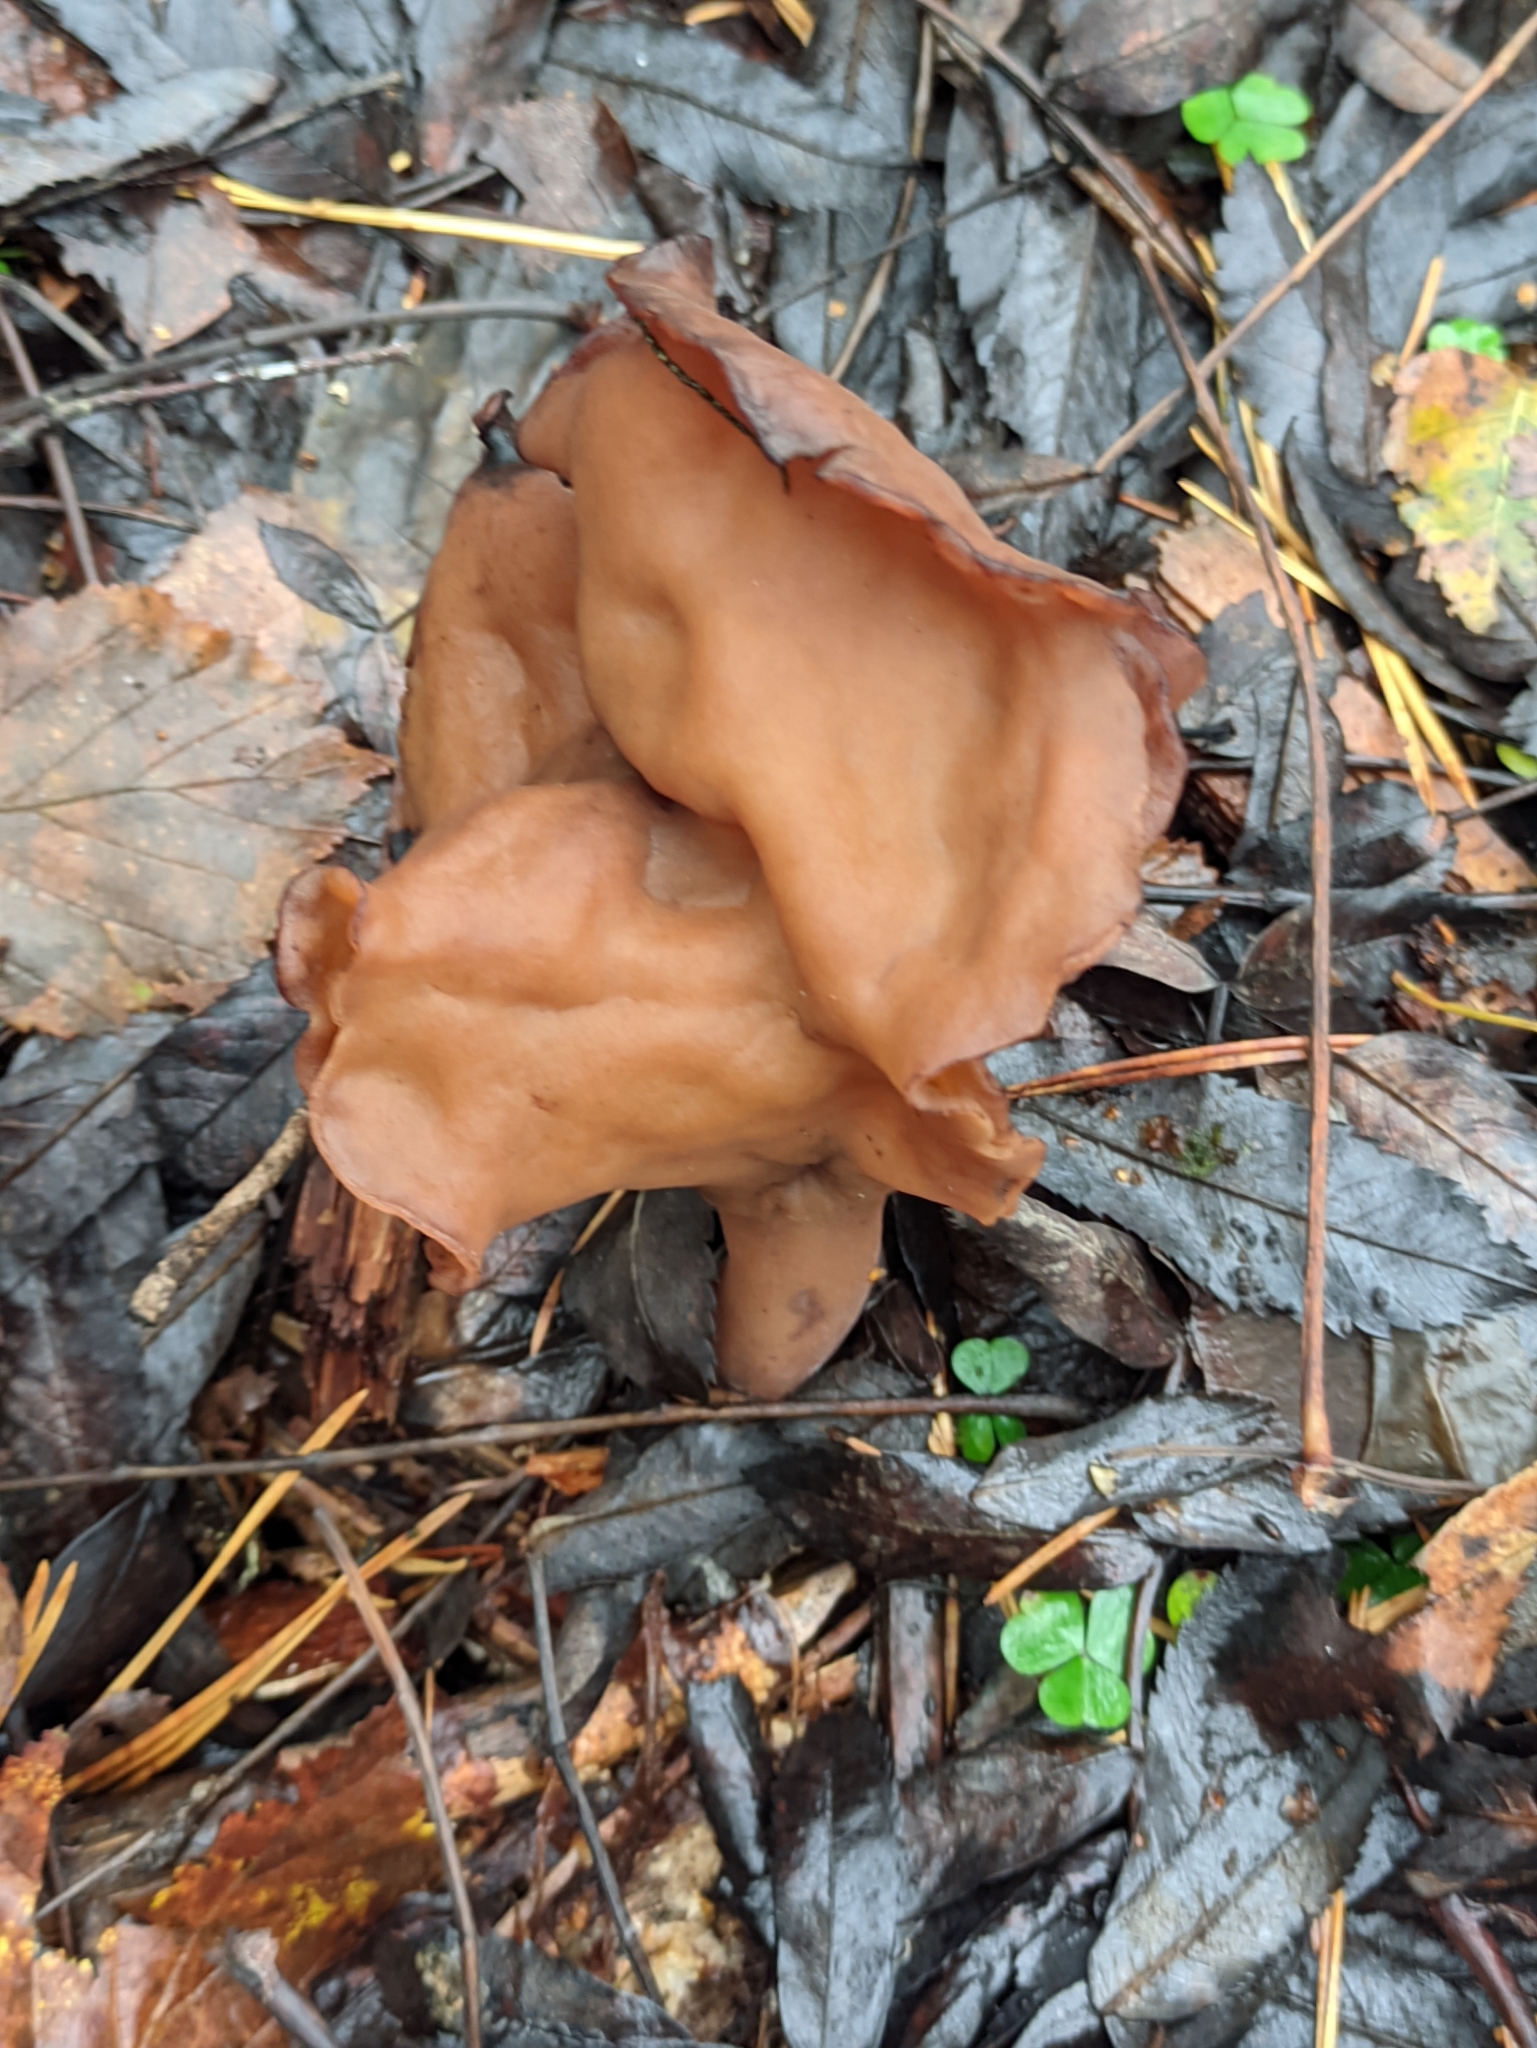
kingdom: Fungi
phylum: Ascomycota
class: Pezizomycetes
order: Pezizales
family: Discinaceae
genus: Gyromitra
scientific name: Gyromitra infula
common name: Pouched false morel
